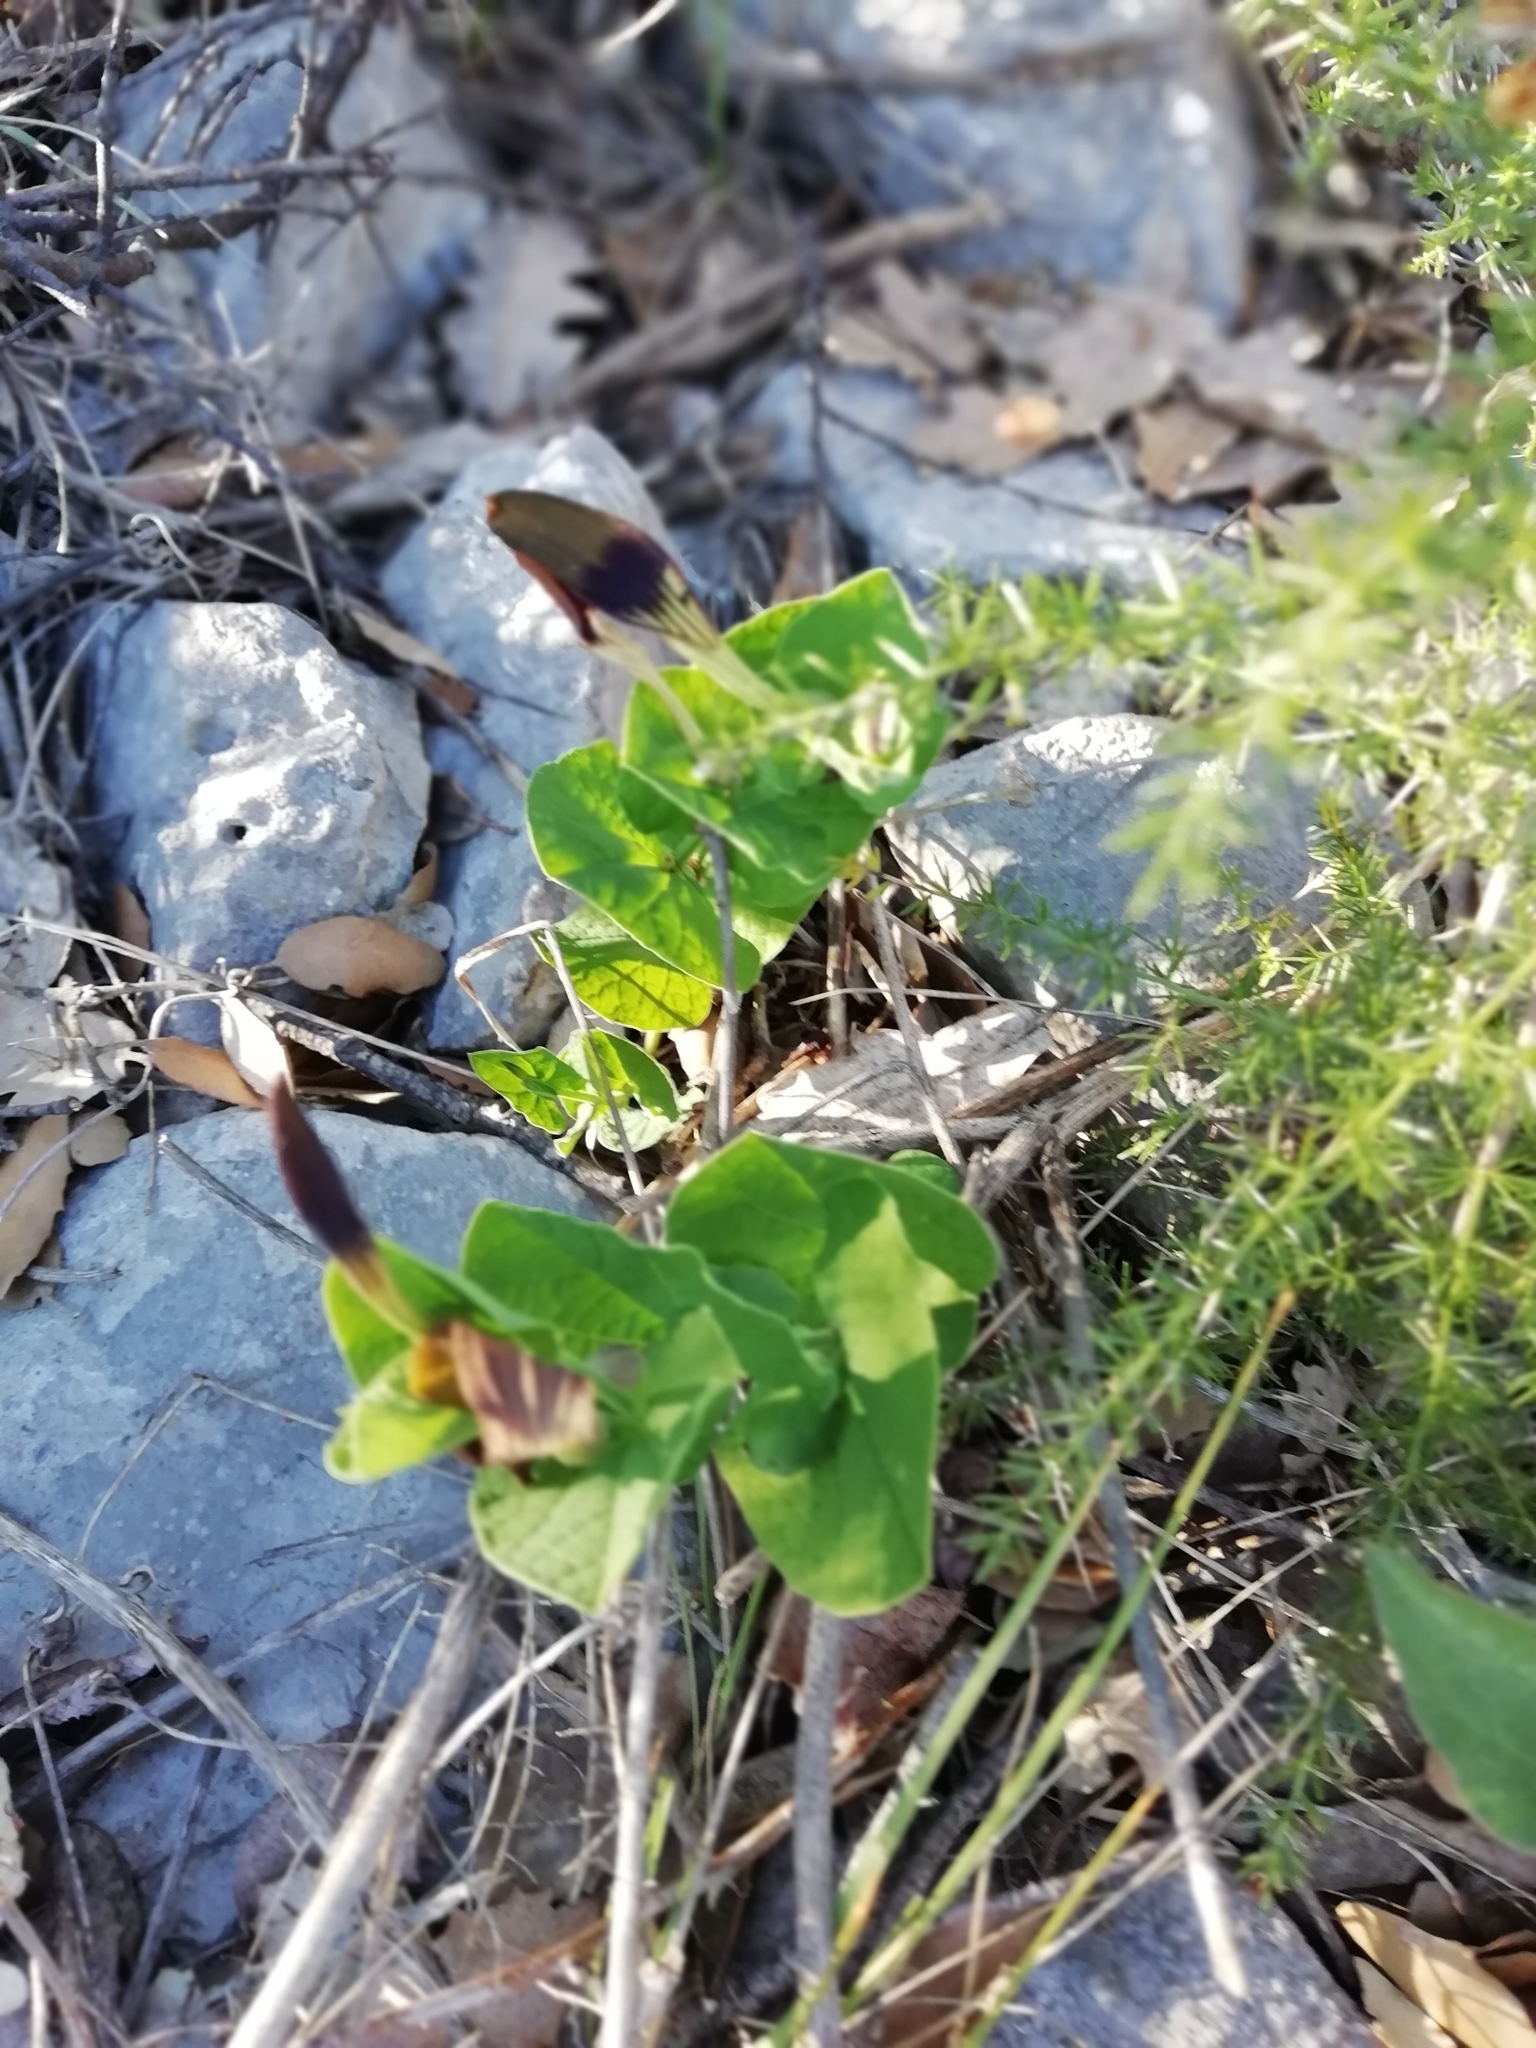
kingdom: Plantae
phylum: Tracheophyta
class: Magnoliopsida
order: Piperales
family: Aristolochiaceae
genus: Aristolochia
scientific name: Aristolochia rotunda
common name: Smearwort
